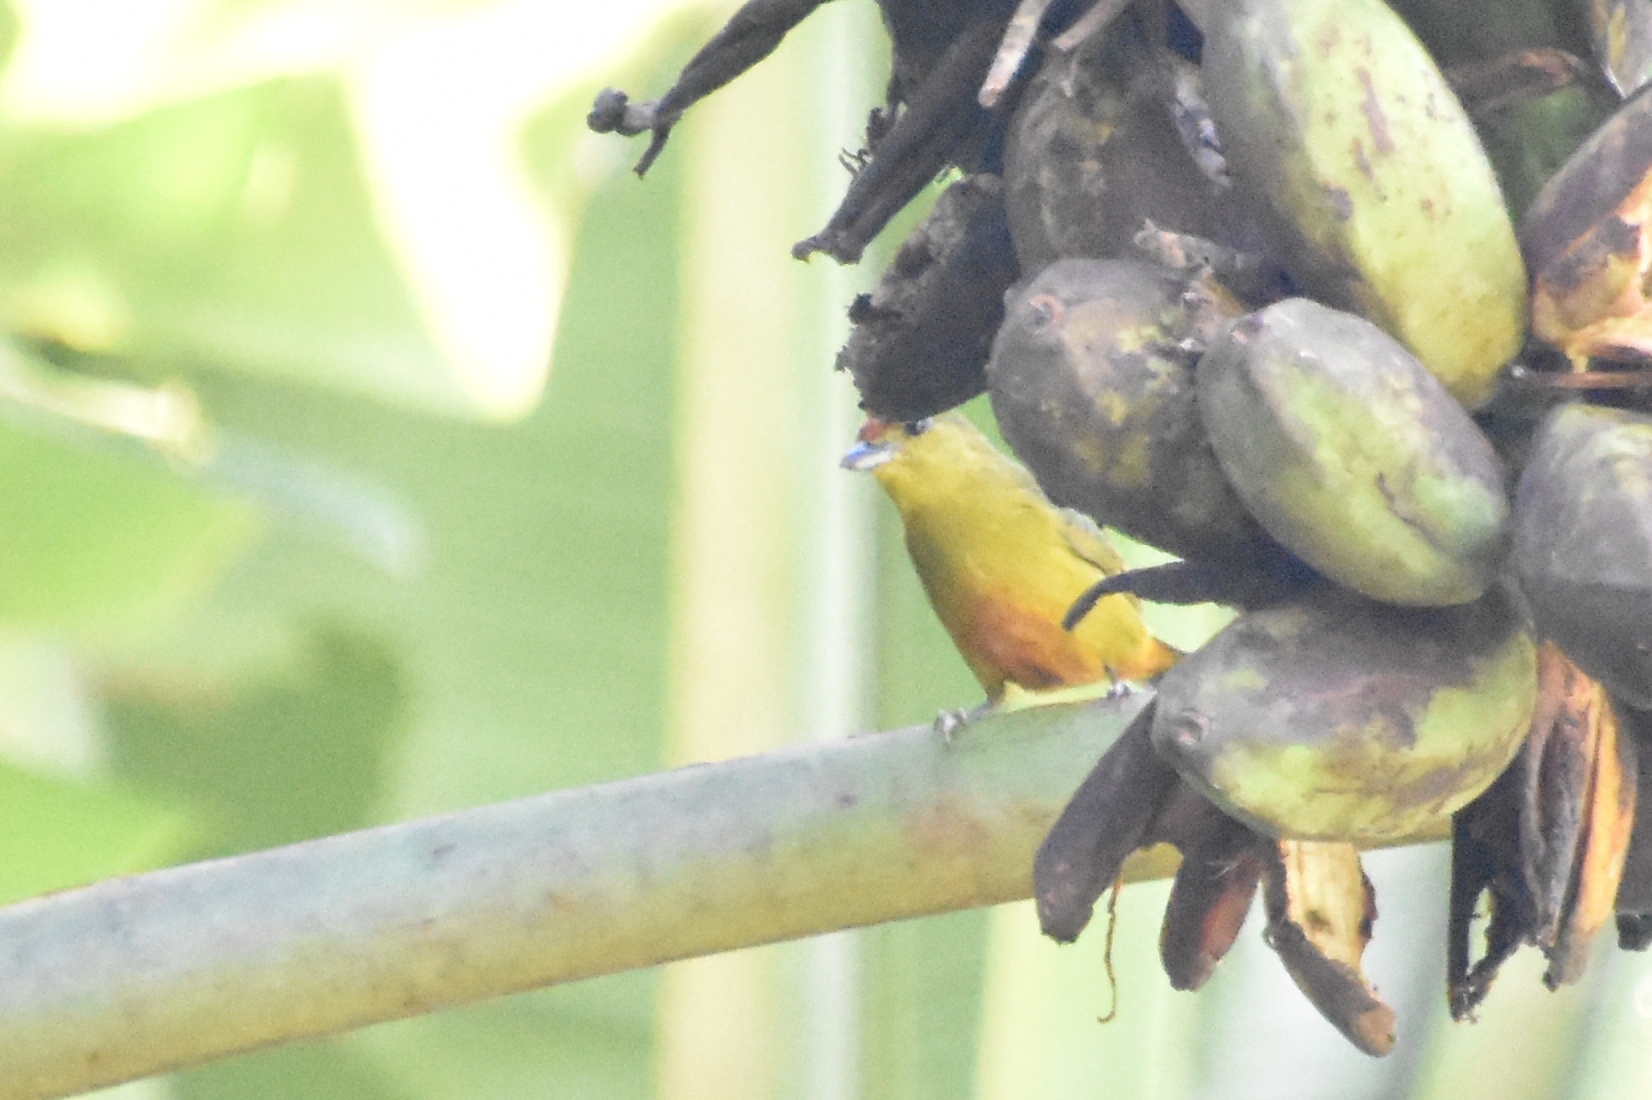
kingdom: Animalia
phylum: Chordata
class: Aves
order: Passeriformes
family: Fringillidae
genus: Euphonia
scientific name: Euphonia imitans
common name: Spot-crowned euphonia
